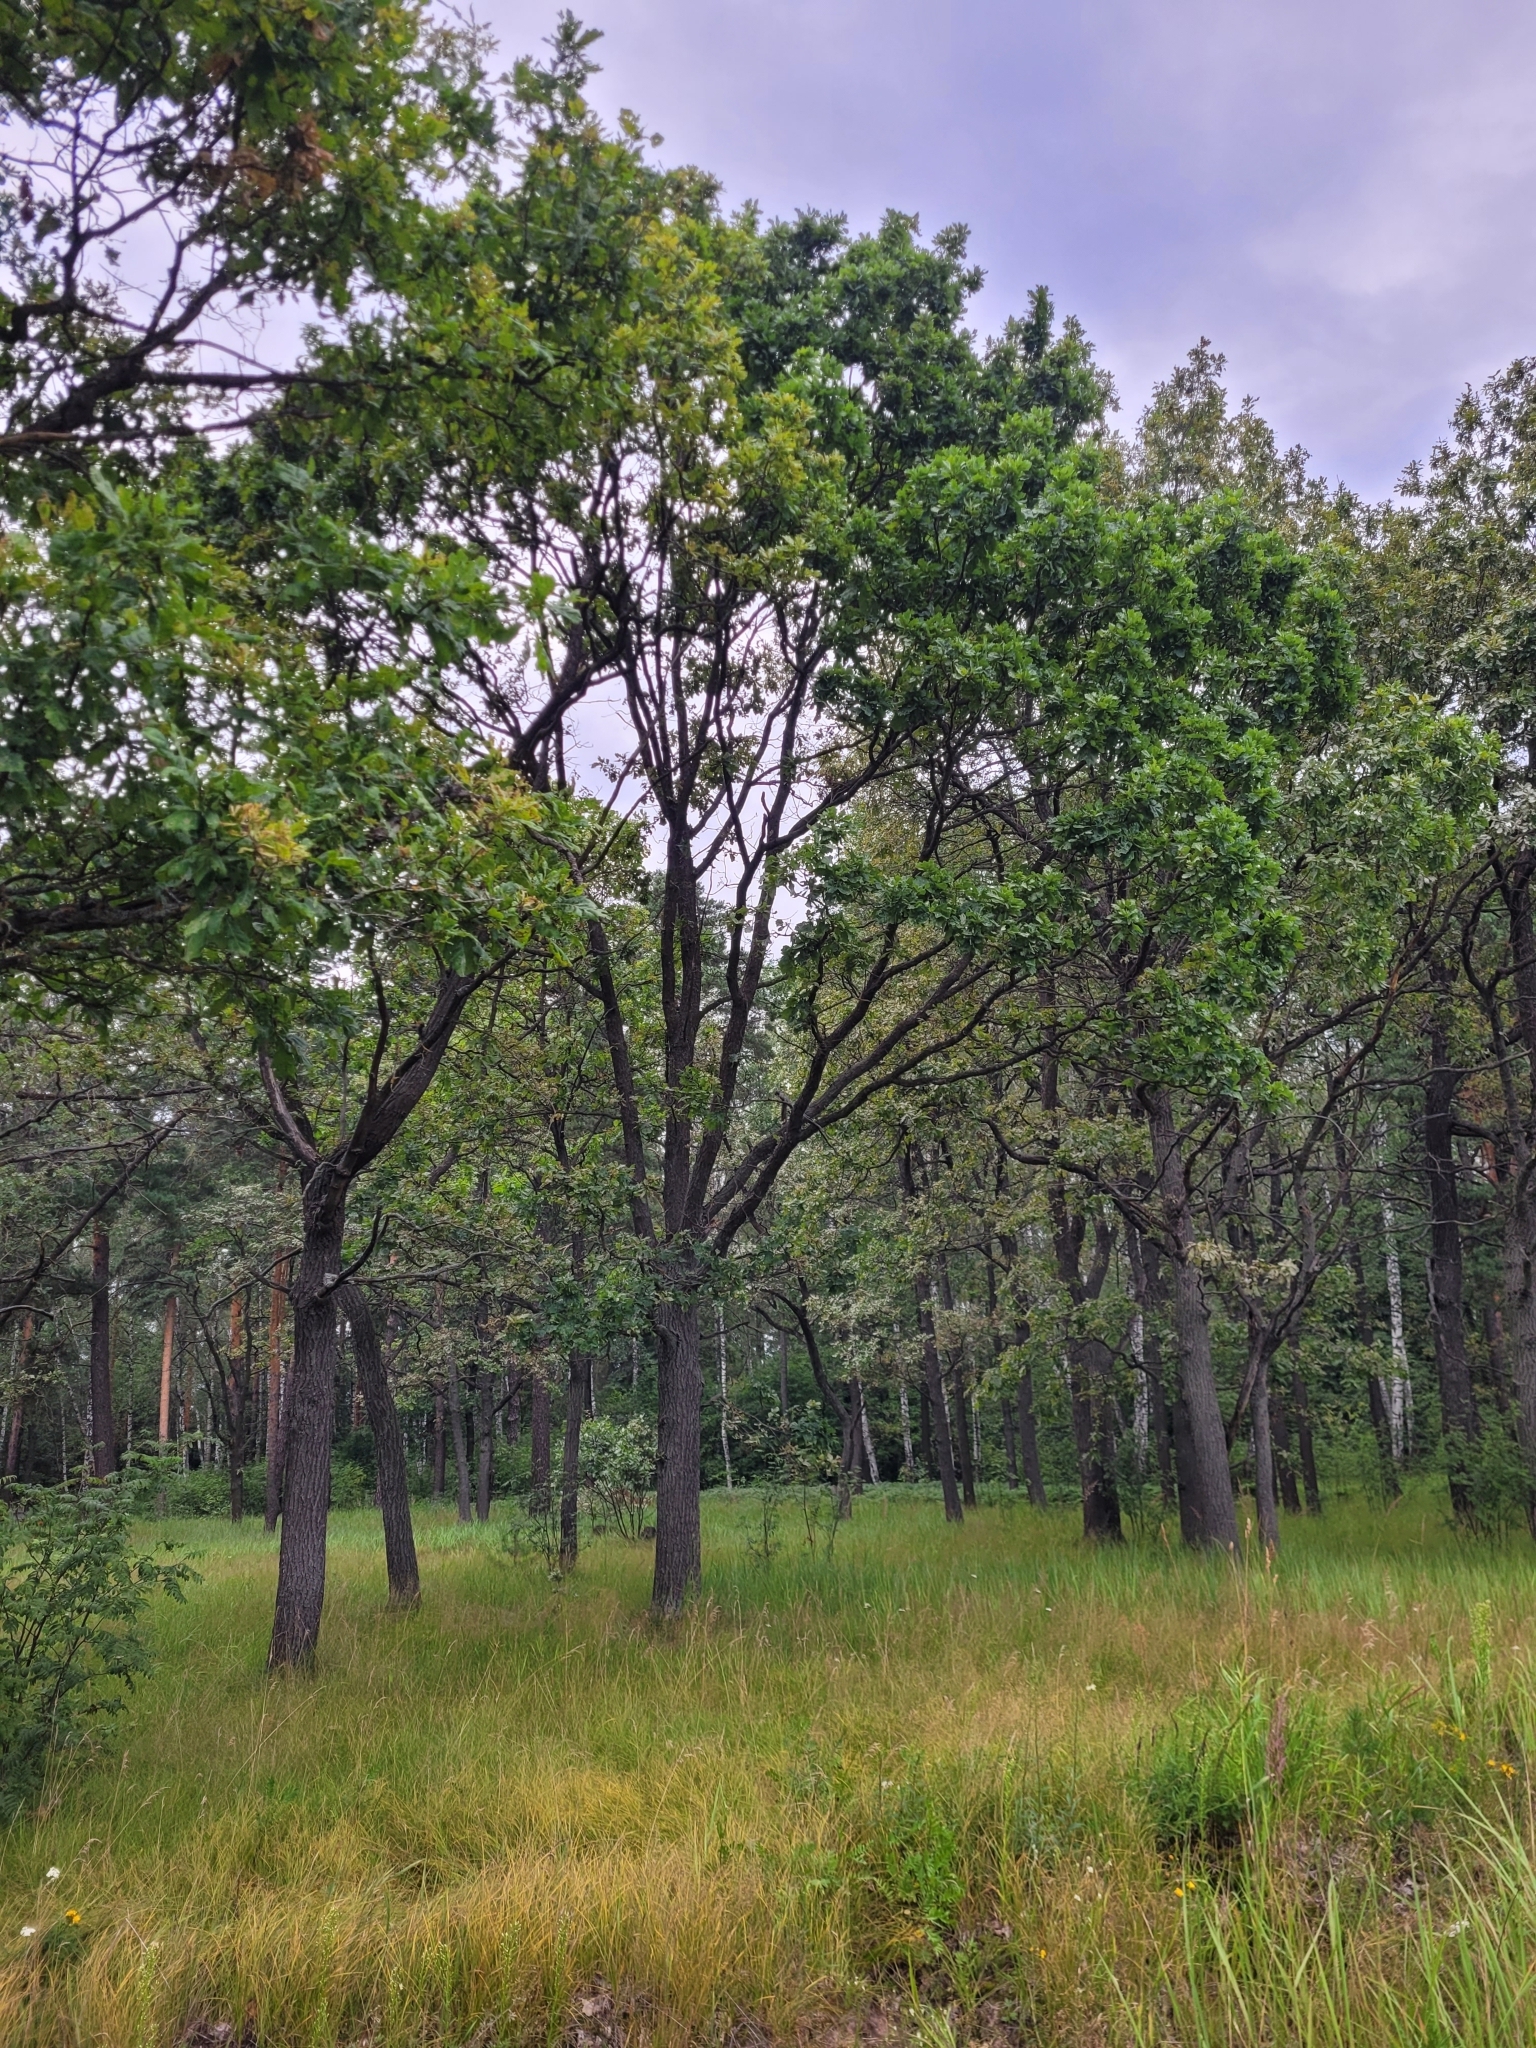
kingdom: Plantae
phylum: Tracheophyta
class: Magnoliopsida
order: Fagales
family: Fagaceae
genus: Quercus
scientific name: Quercus robur
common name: Pedunculate oak
